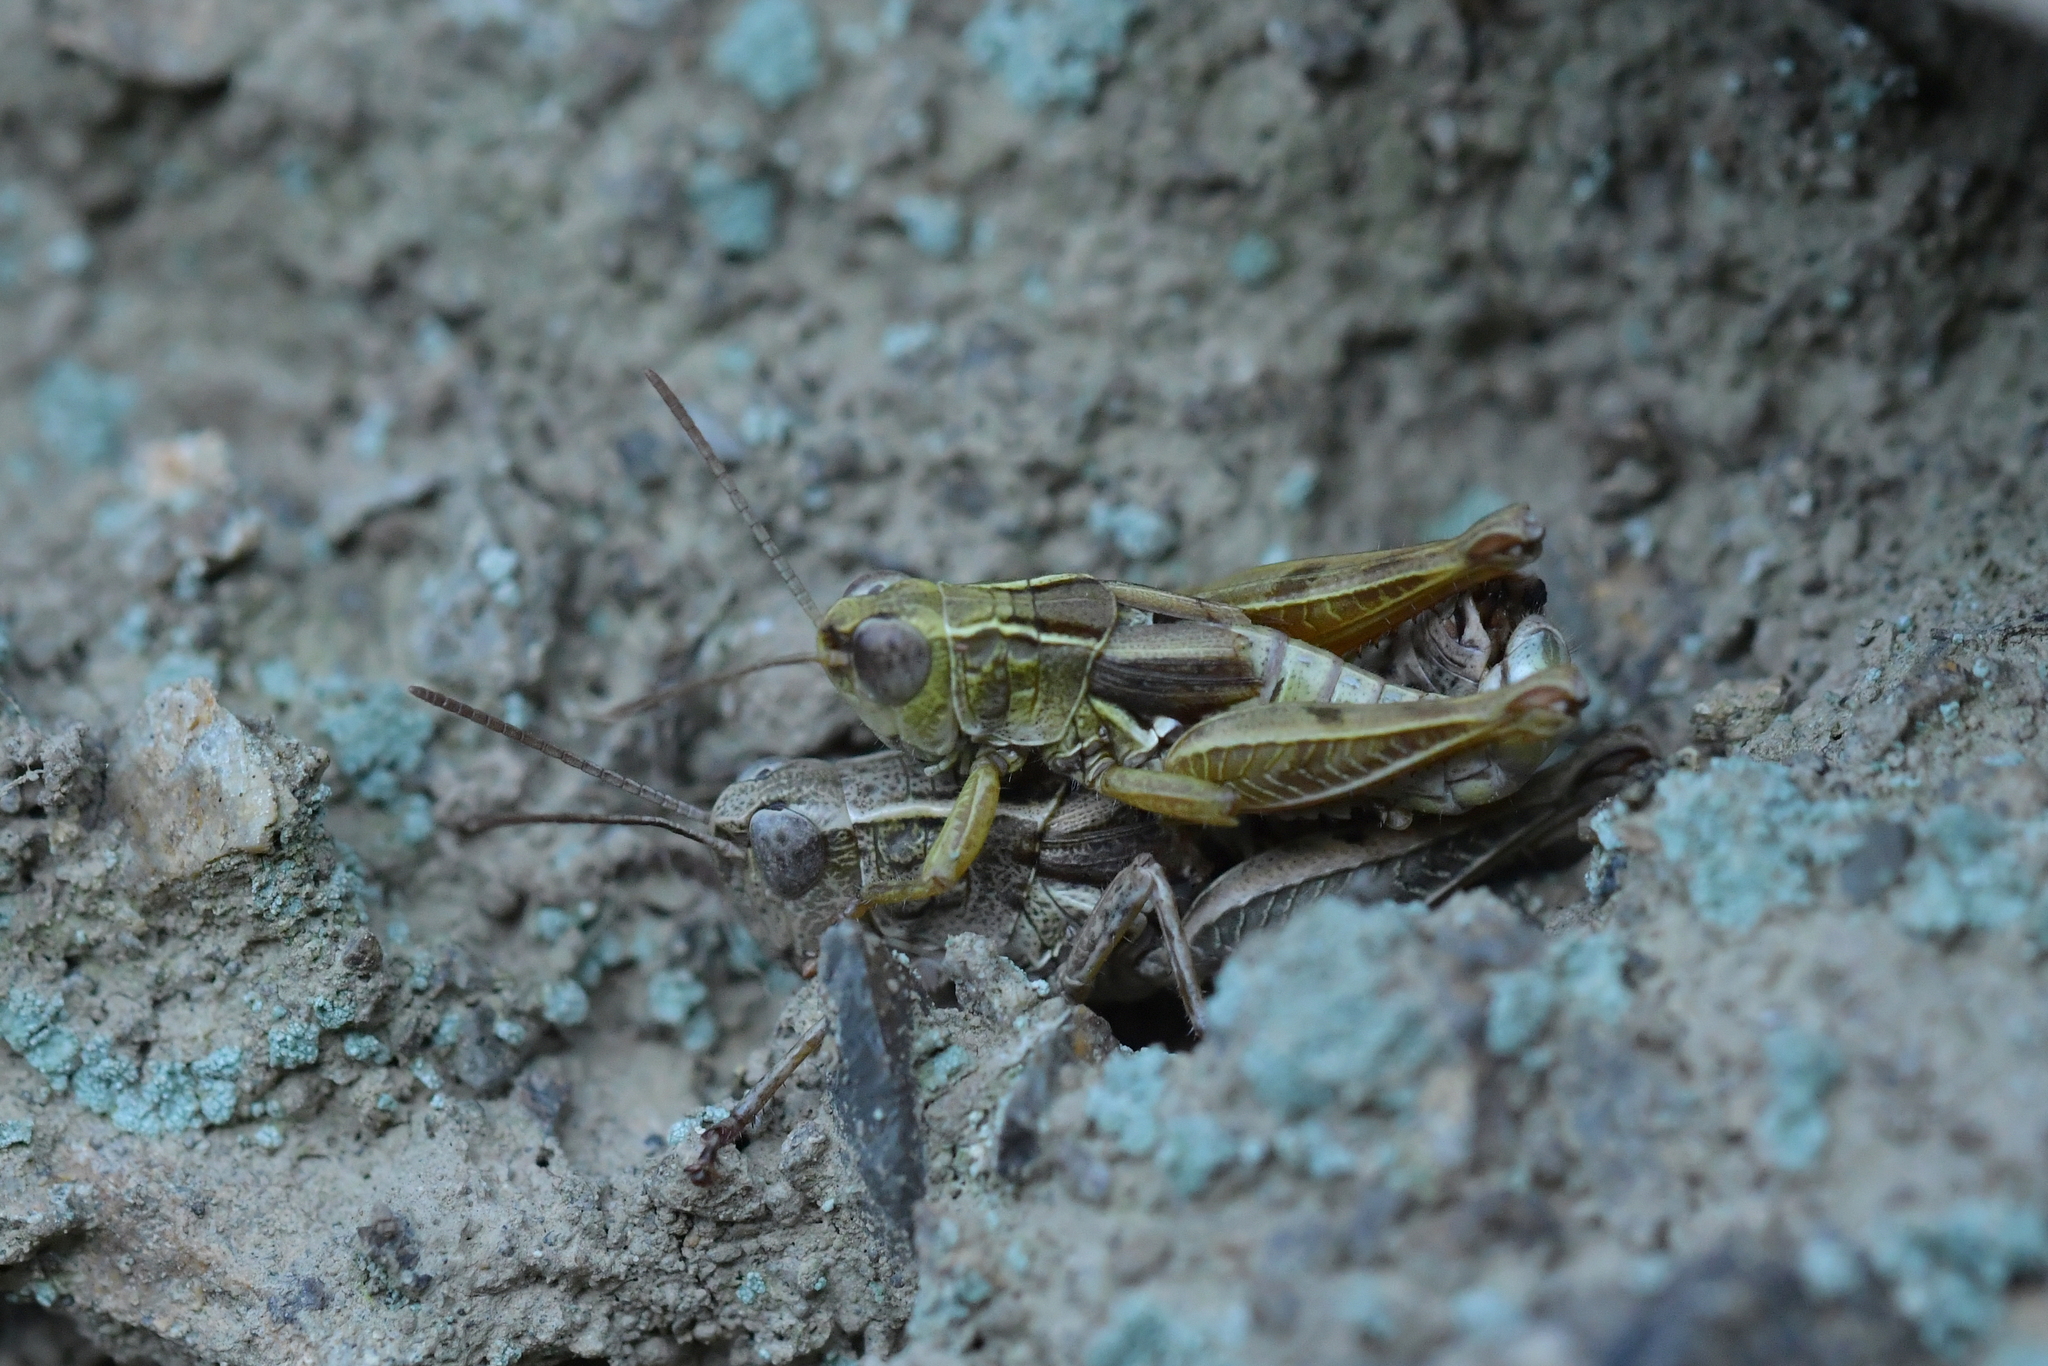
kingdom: Animalia
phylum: Arthropoda
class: Insecta
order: Orthoptera
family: Acrididae
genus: Phaulacridium
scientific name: Phaulacridium marginale
